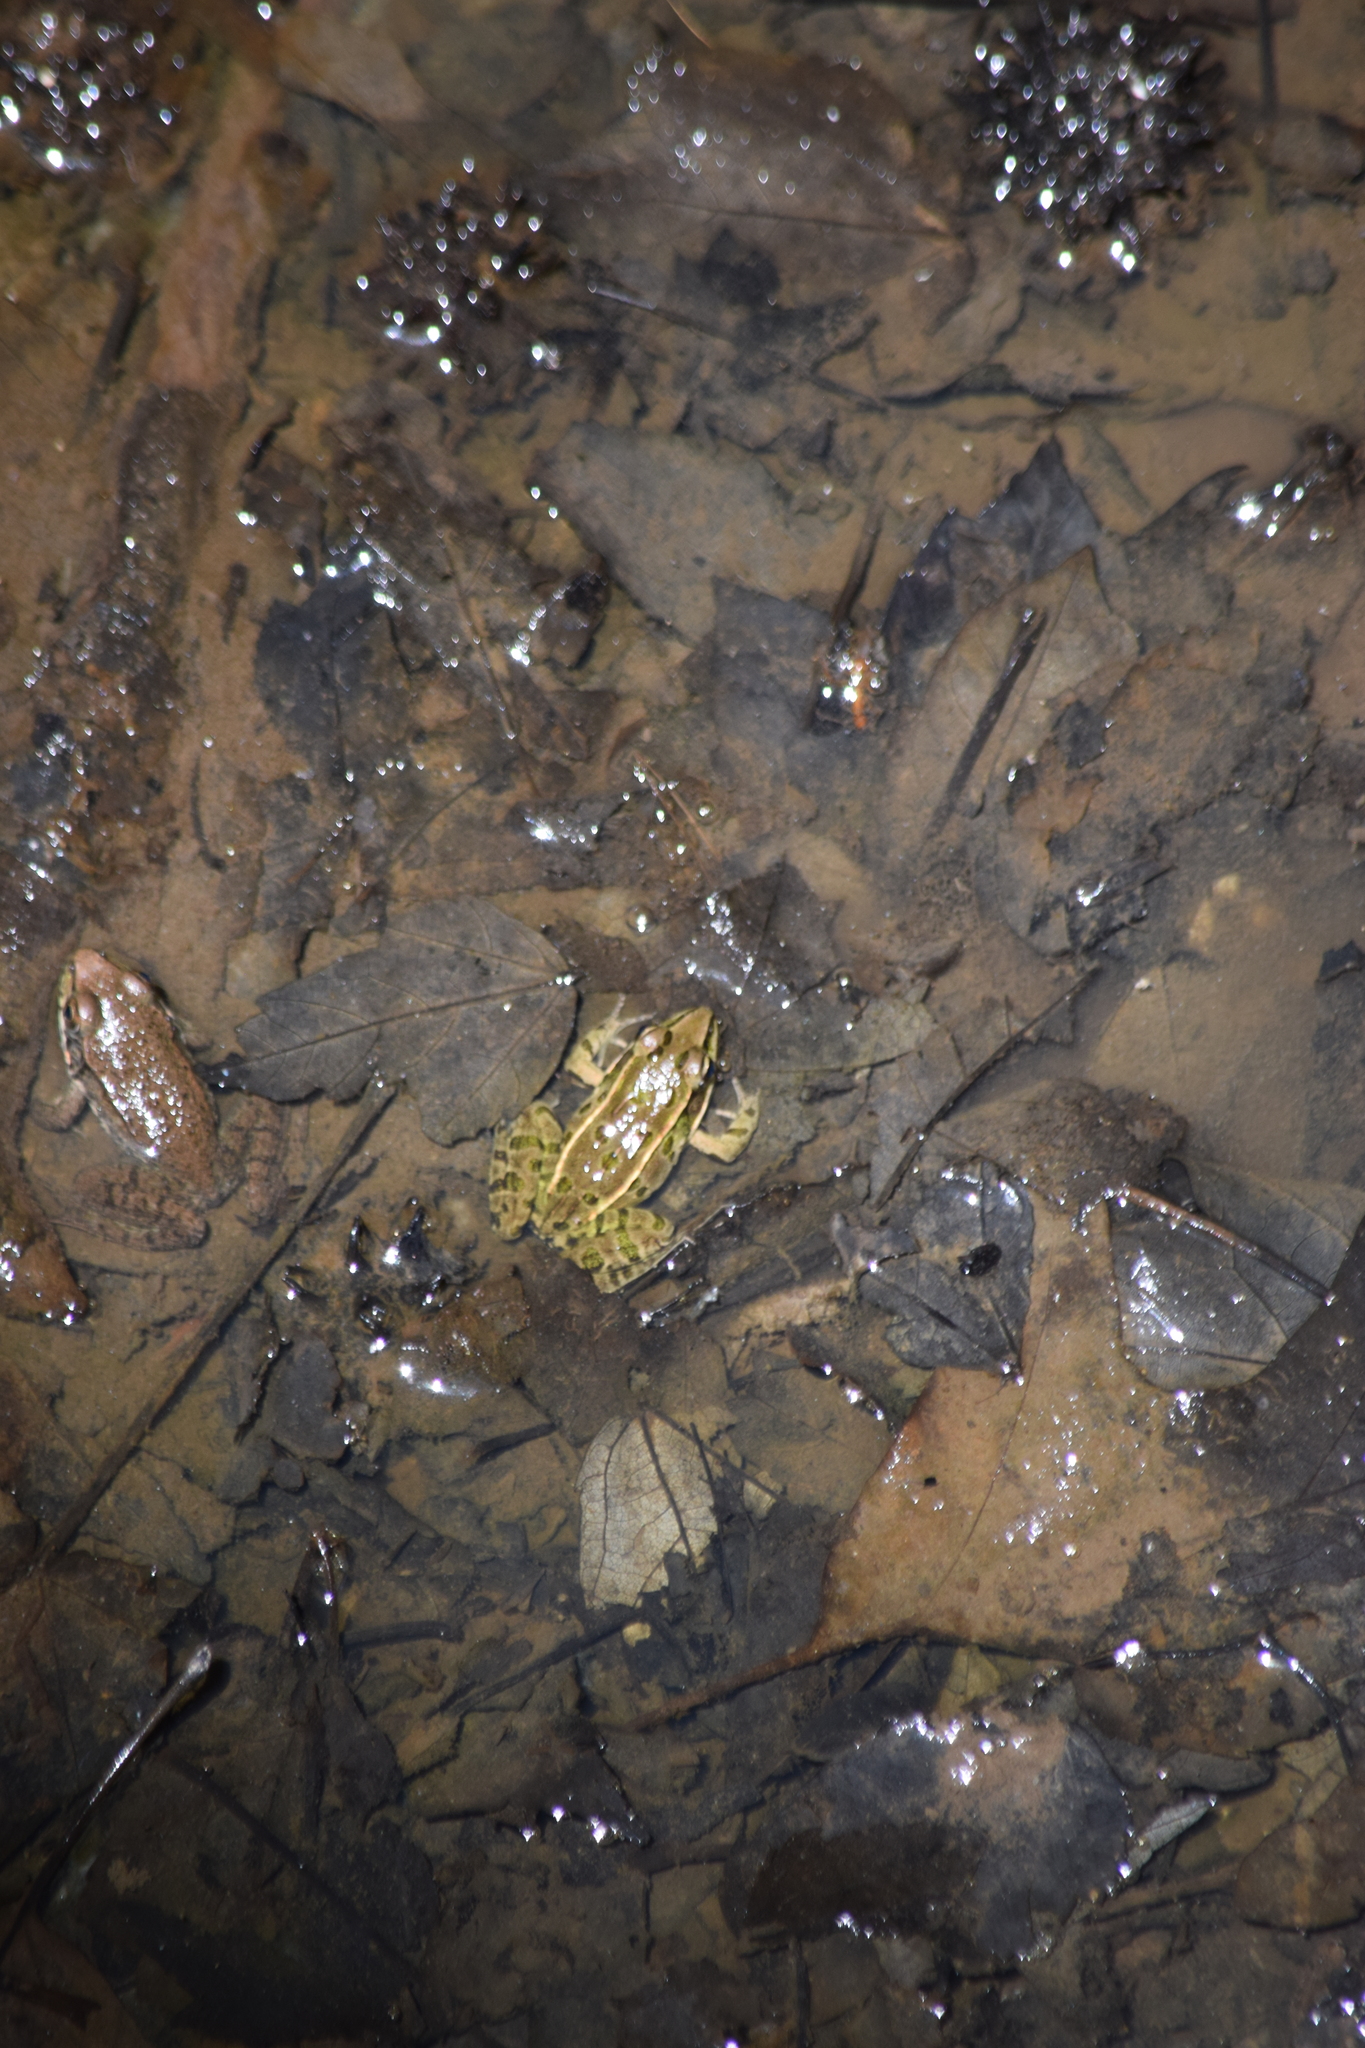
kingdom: Animalia
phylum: Chordata
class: Amphibia
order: Anura
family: Ranidae
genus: Lithobates
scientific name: Lithobates kauffeldi
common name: Mid-atlantic coast leopard frog
